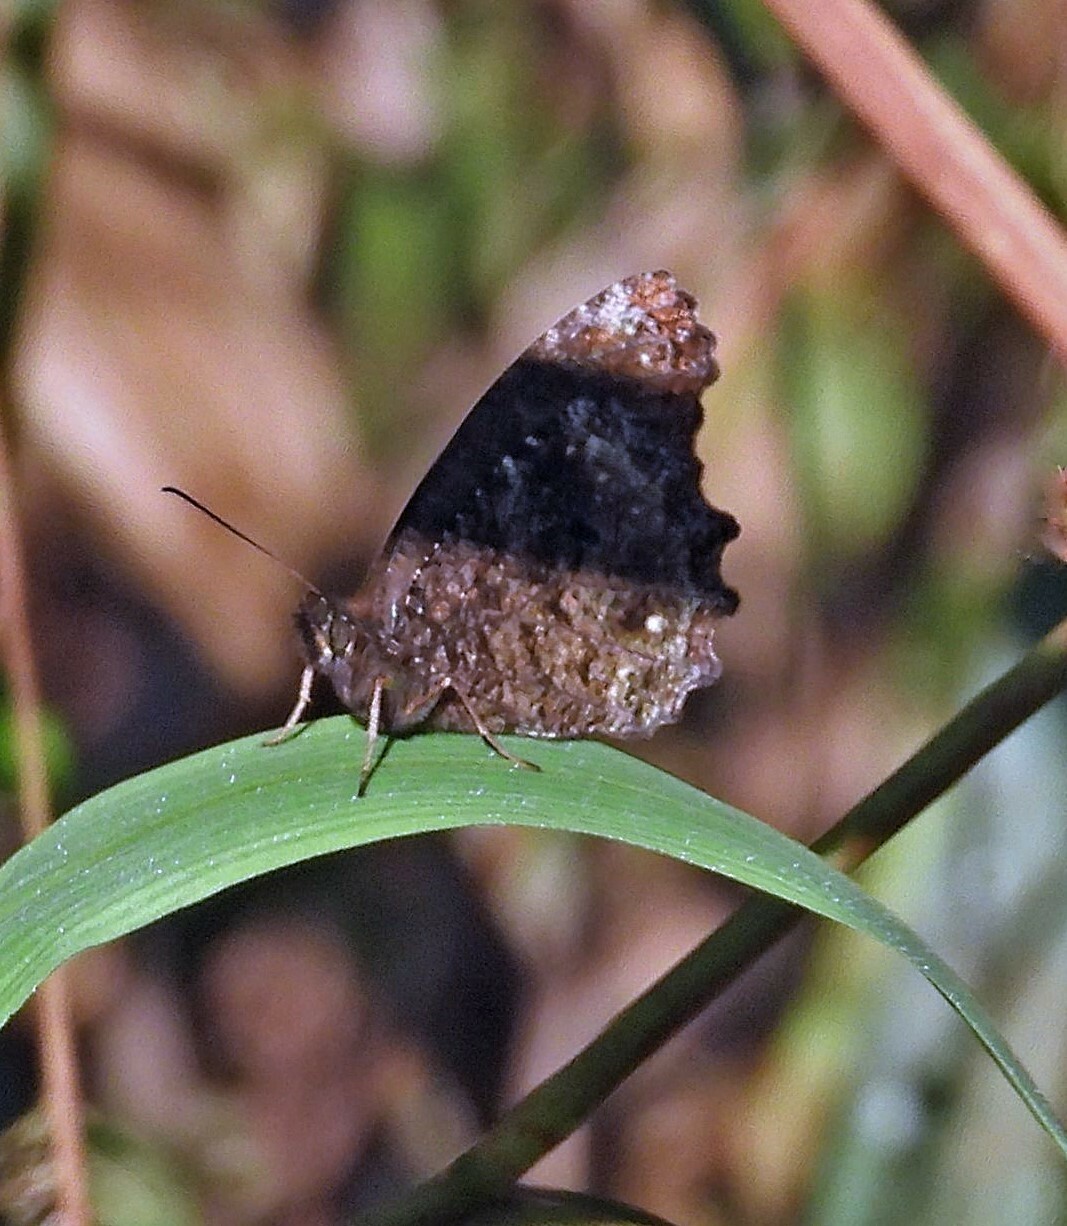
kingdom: Animalia
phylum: Arthropoda
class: Insecta
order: Lepidoptera
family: Nymphalidae
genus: Praepedaliodes
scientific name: Praepedaliodes phanias
